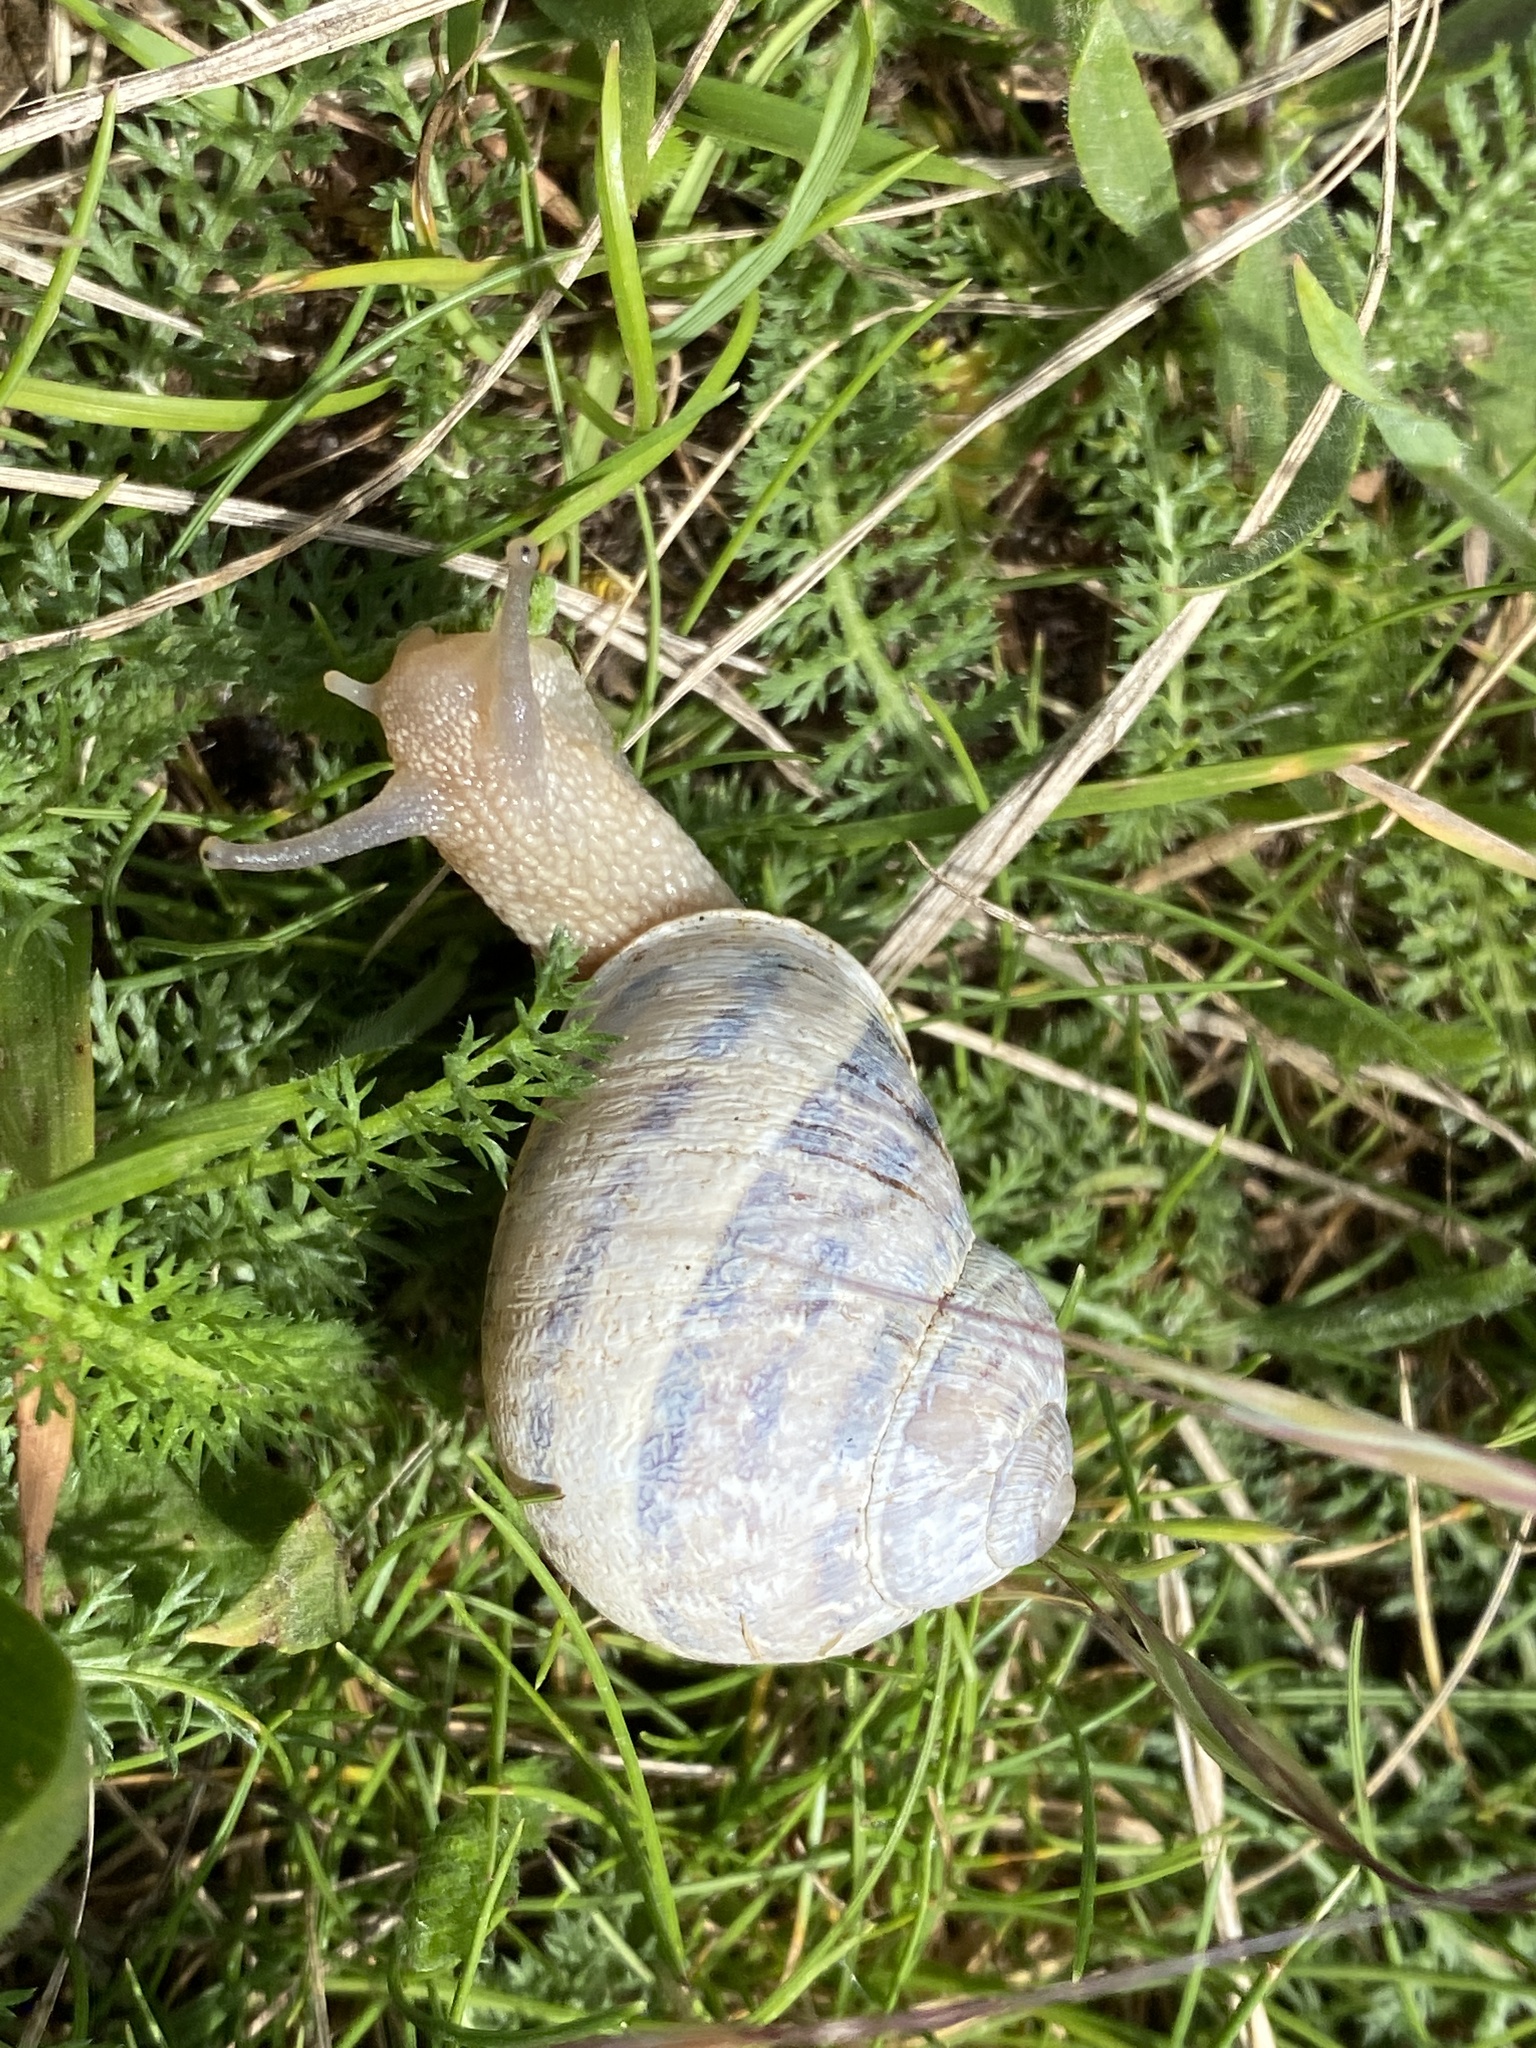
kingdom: Animalia
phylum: Mollusca
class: Gastropoda
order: Stylommatophora
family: Helicidae
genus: Cornu
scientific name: Cornu aspersum
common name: Brown garden snail
